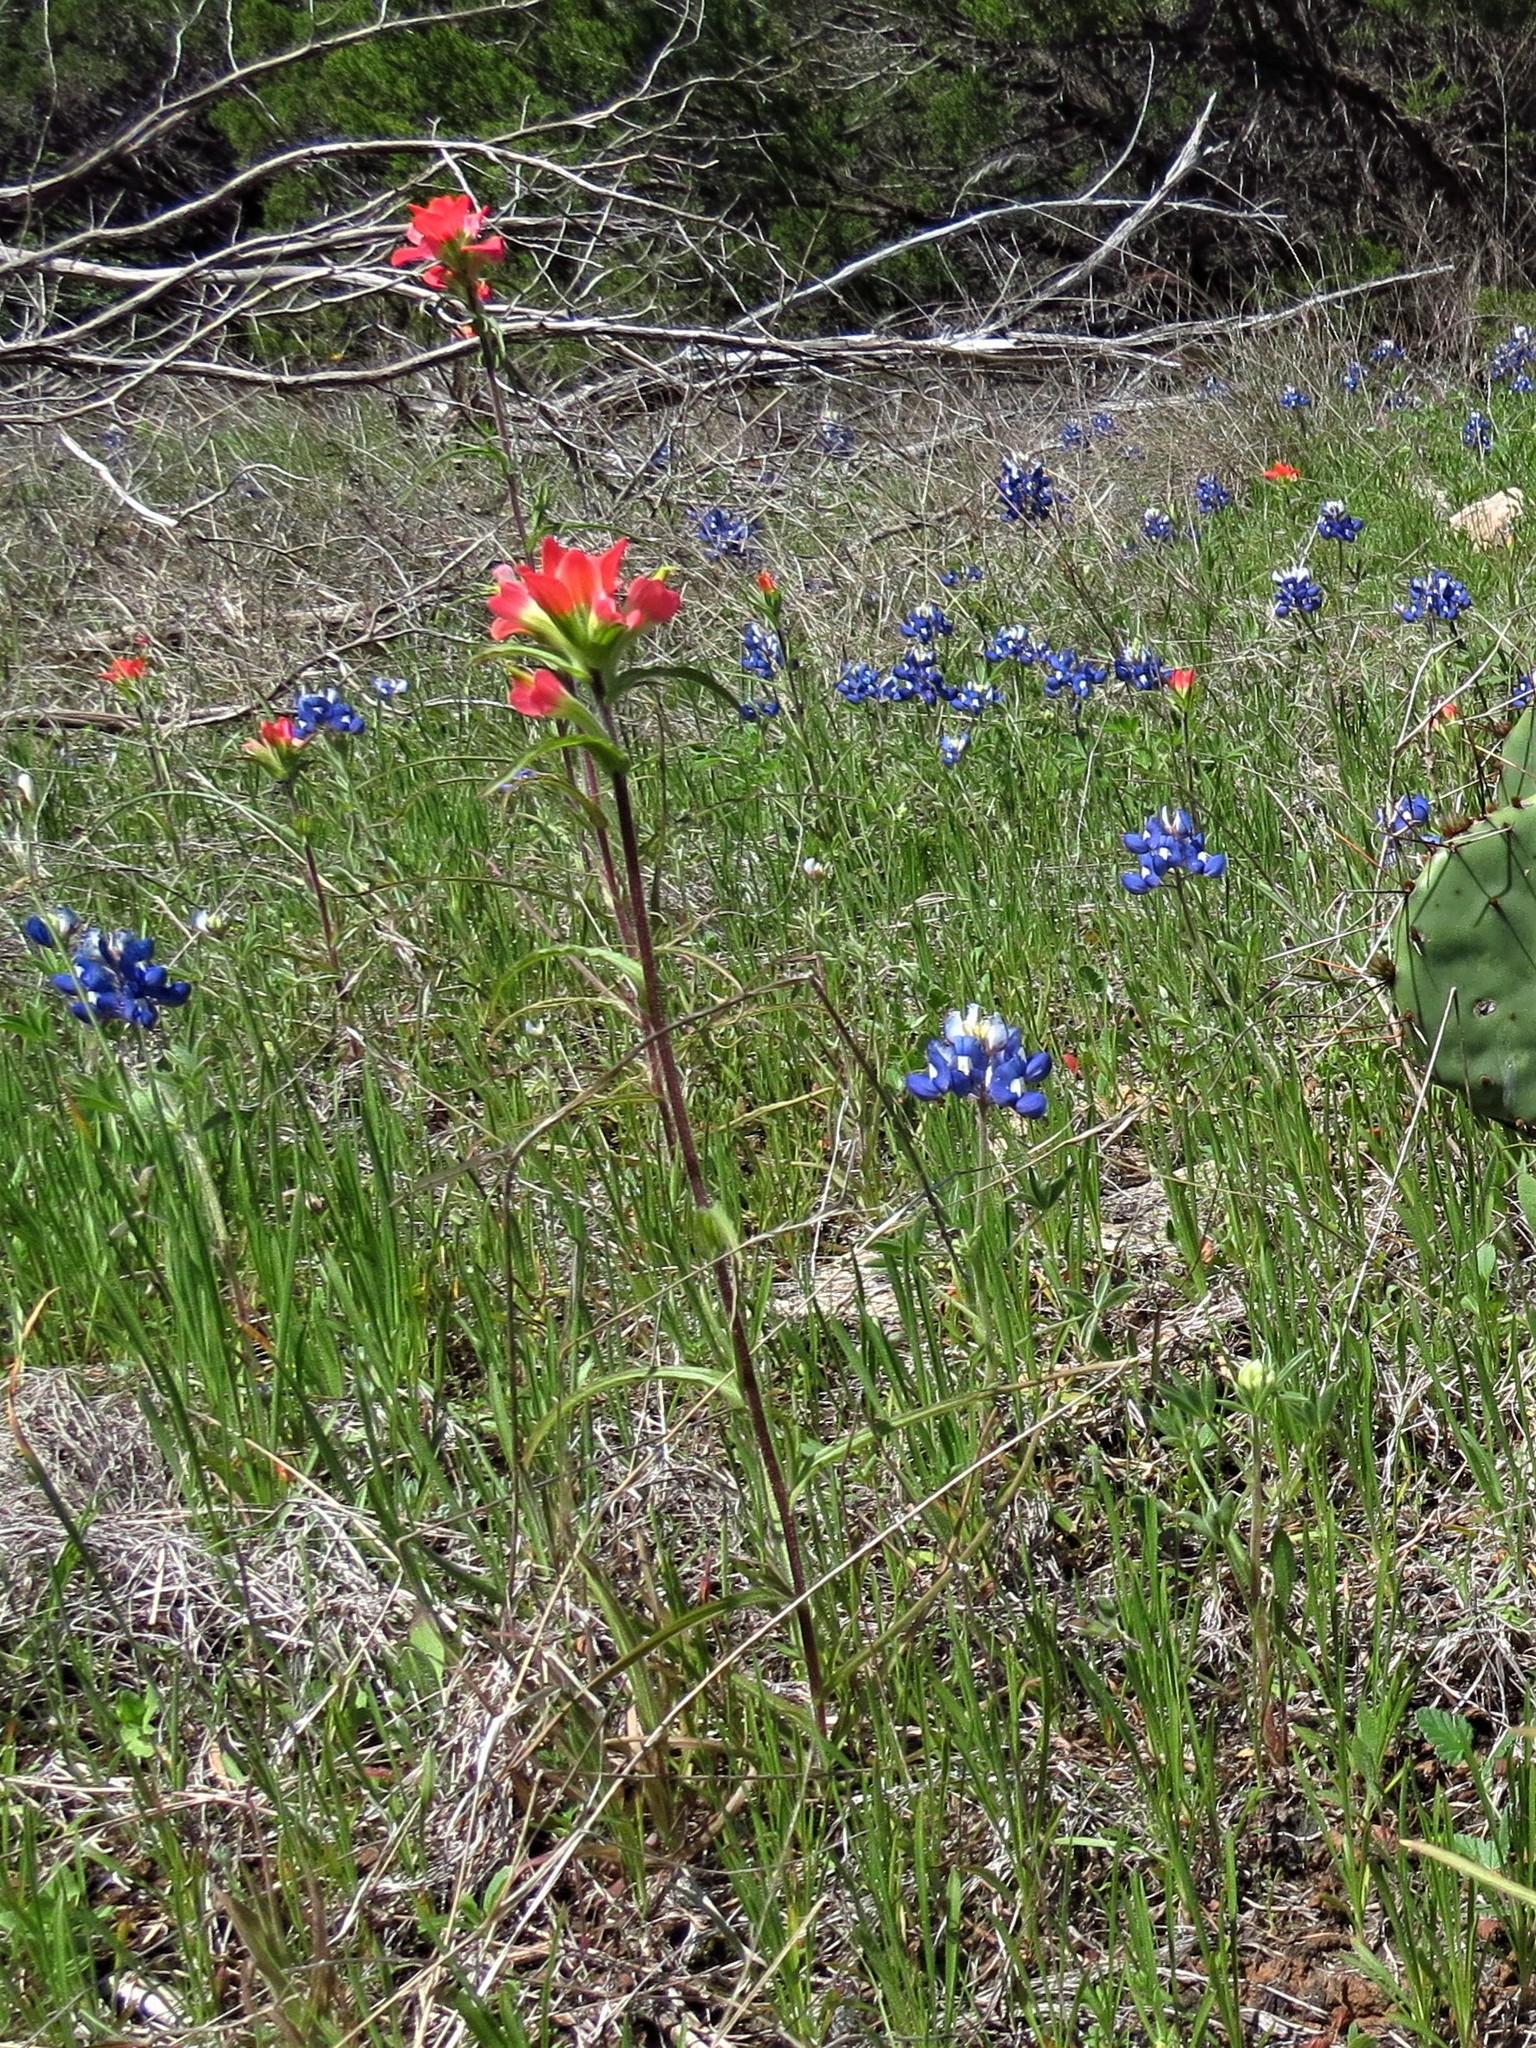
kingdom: Plantae
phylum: Tracheophyta
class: Magnoliopsida
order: Lamiales
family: Orobanchaceae
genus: Castilleja
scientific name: Castilleja indivisa
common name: Texas paintbrush
